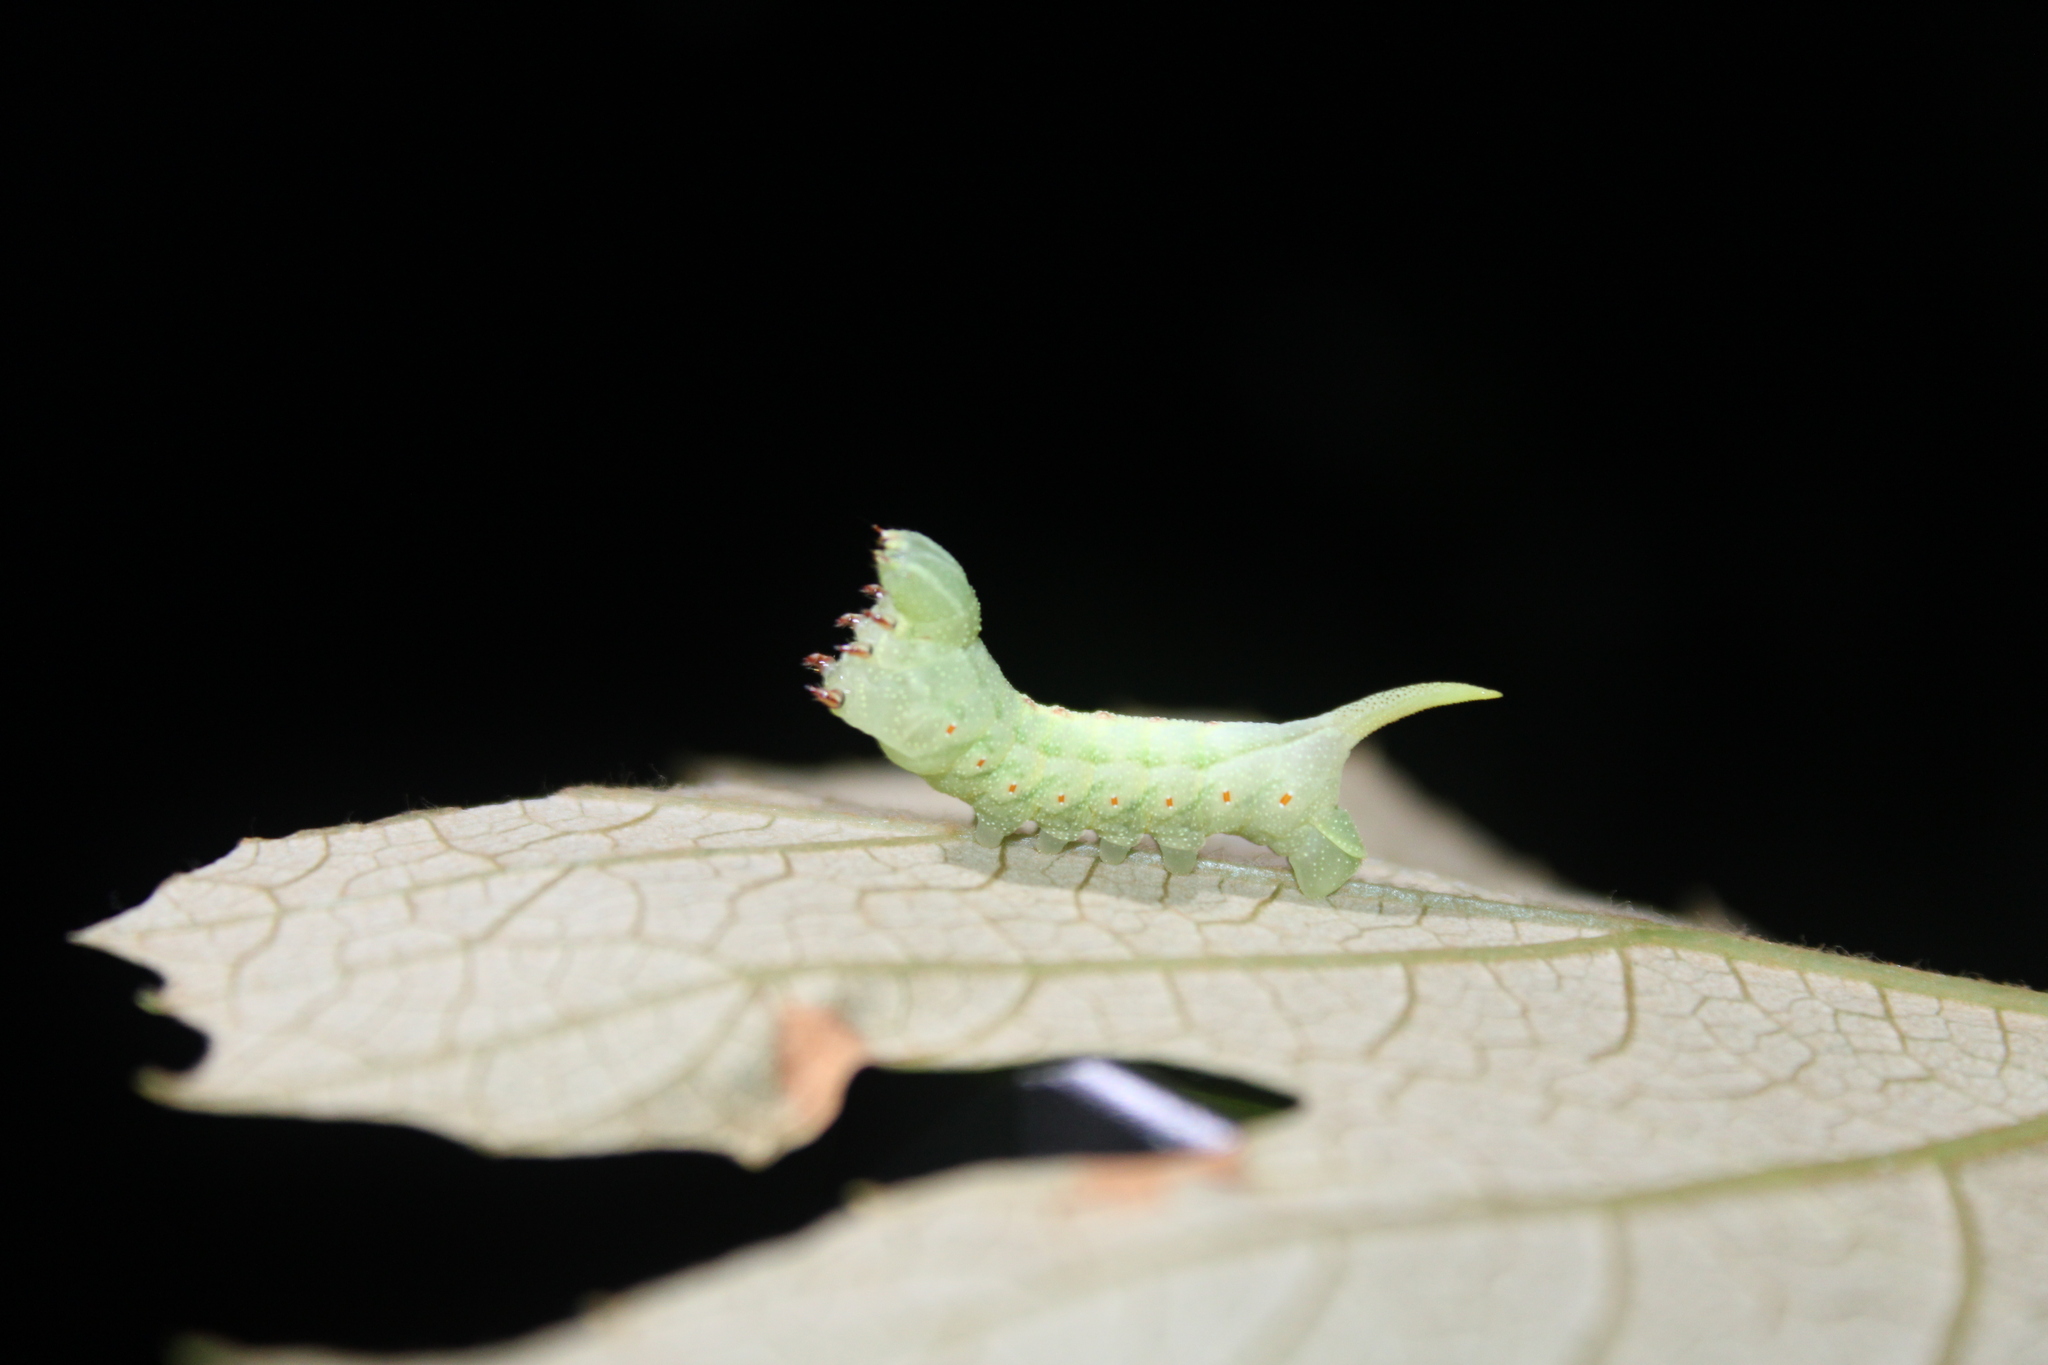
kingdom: Animalia
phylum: Arthropoda
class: Insecta
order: Lepidoptera
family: Sphingidae
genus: Darapsa
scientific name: Darapsa myron
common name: Hog sphinx
